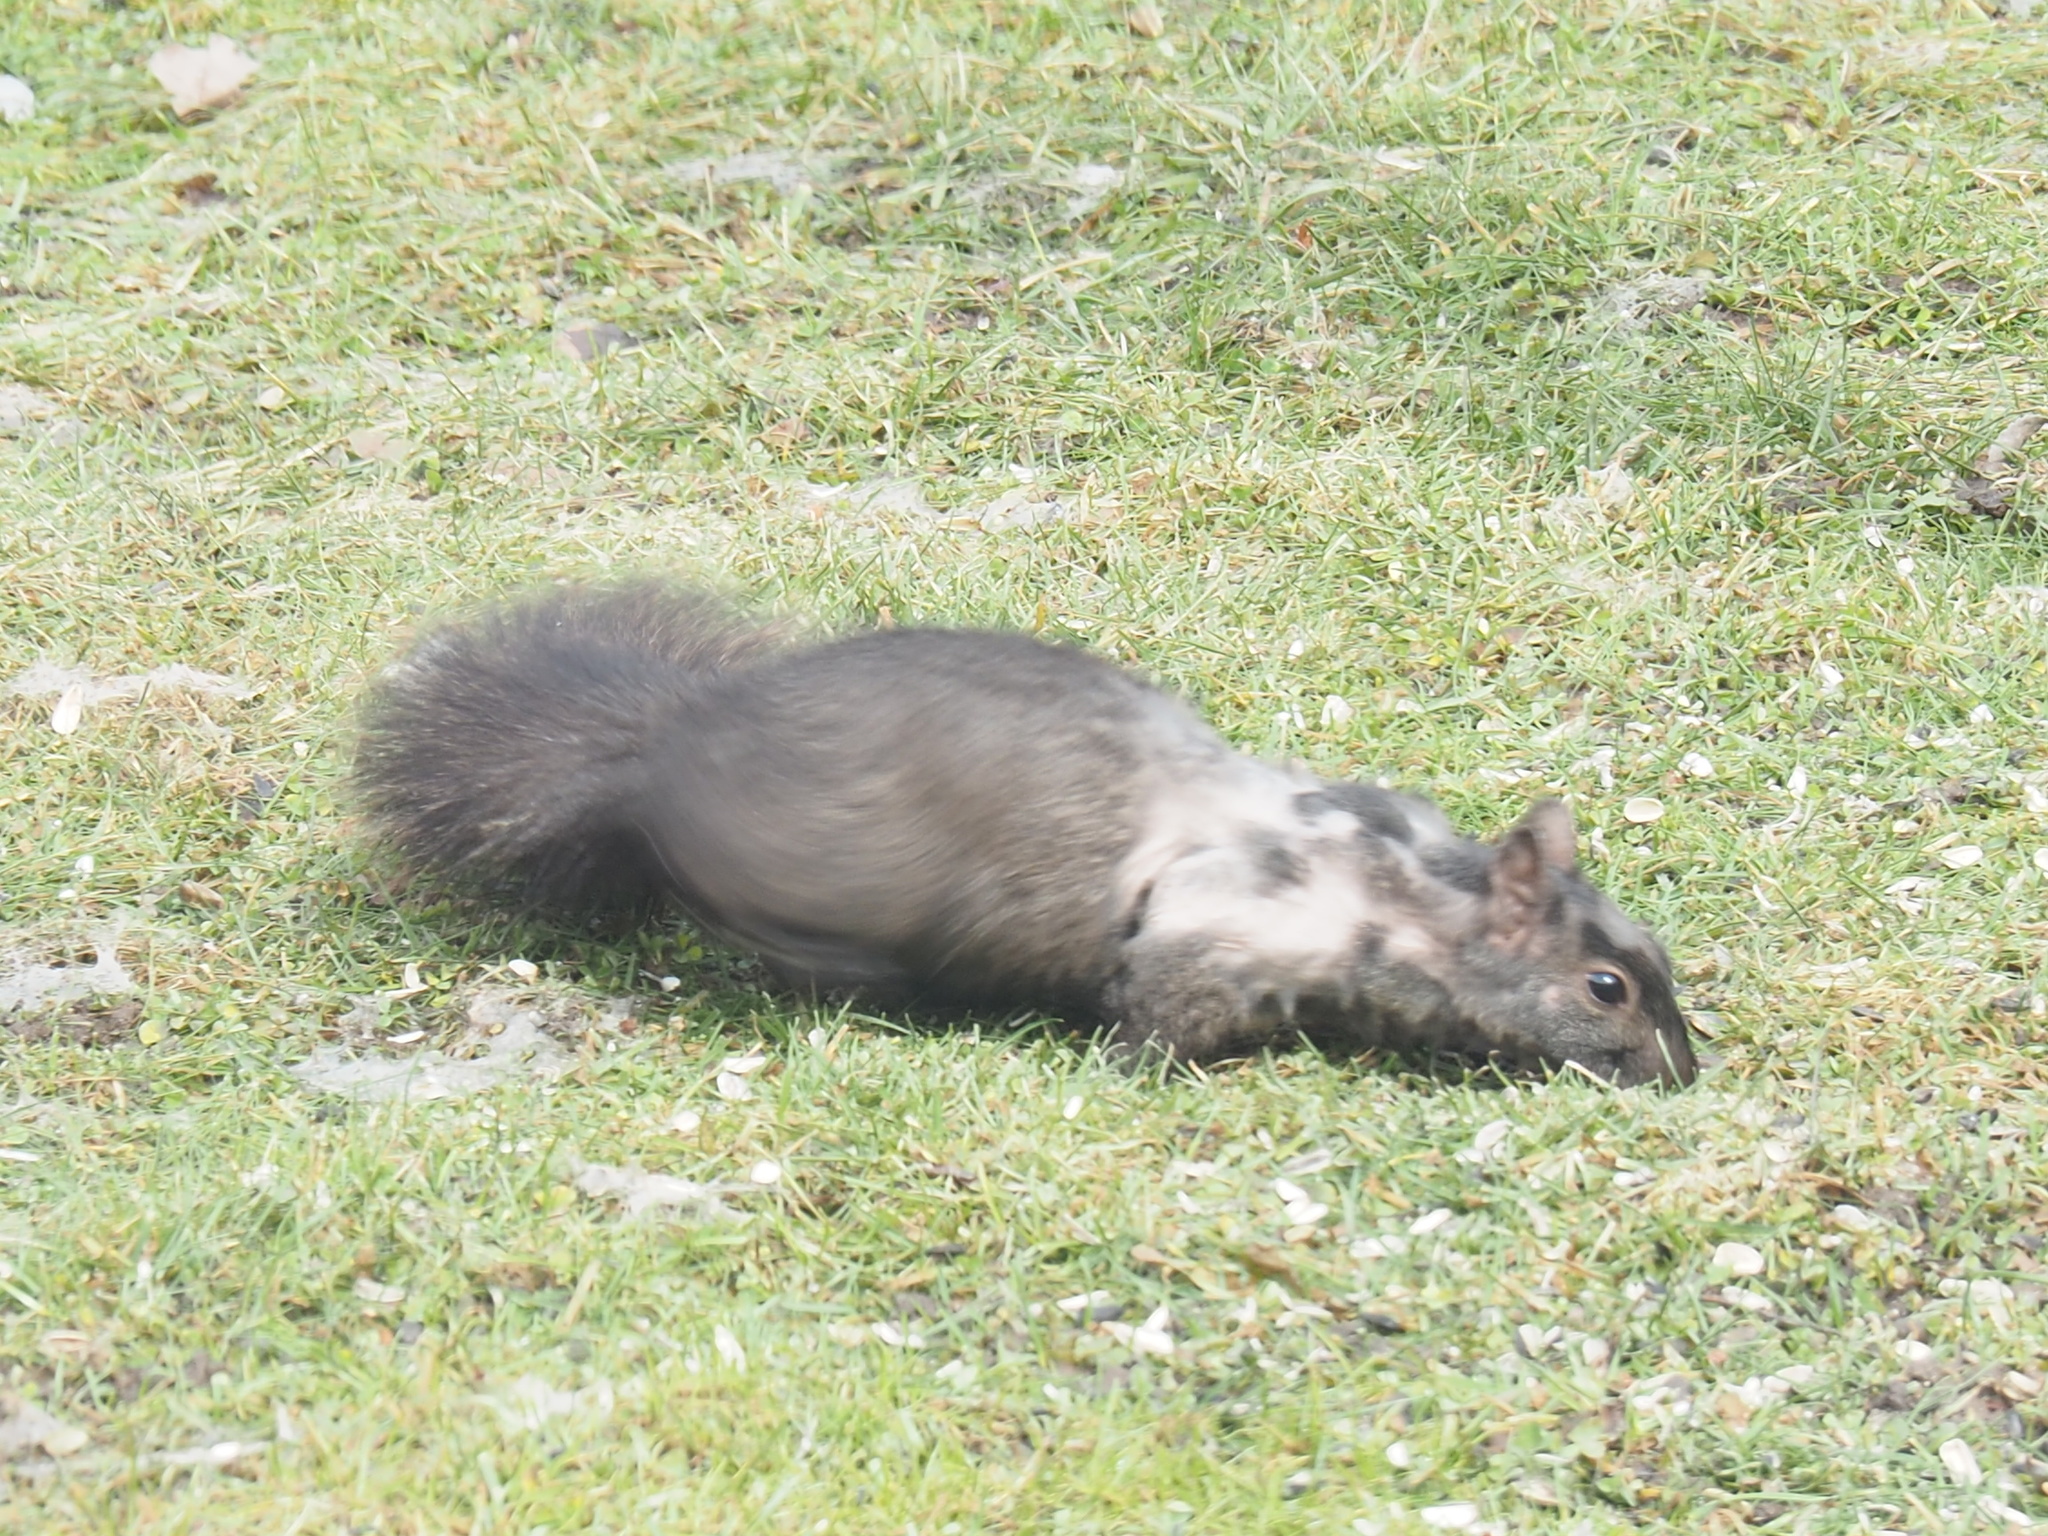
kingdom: Animalia
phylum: Chordata
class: Mammalia
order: Rodentia
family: Sciuridae
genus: Sciurus
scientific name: Sciurus carolinensis
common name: Eastern gray squirrel
